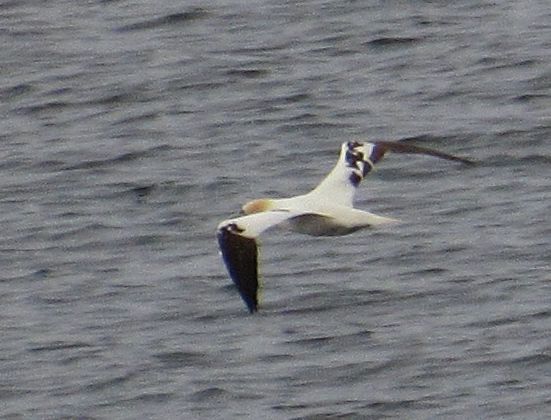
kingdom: Animalia
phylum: Chordata
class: Aves
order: Suliformes
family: Sulidae
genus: Morus
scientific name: Morus bassanus
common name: Northern gannet
